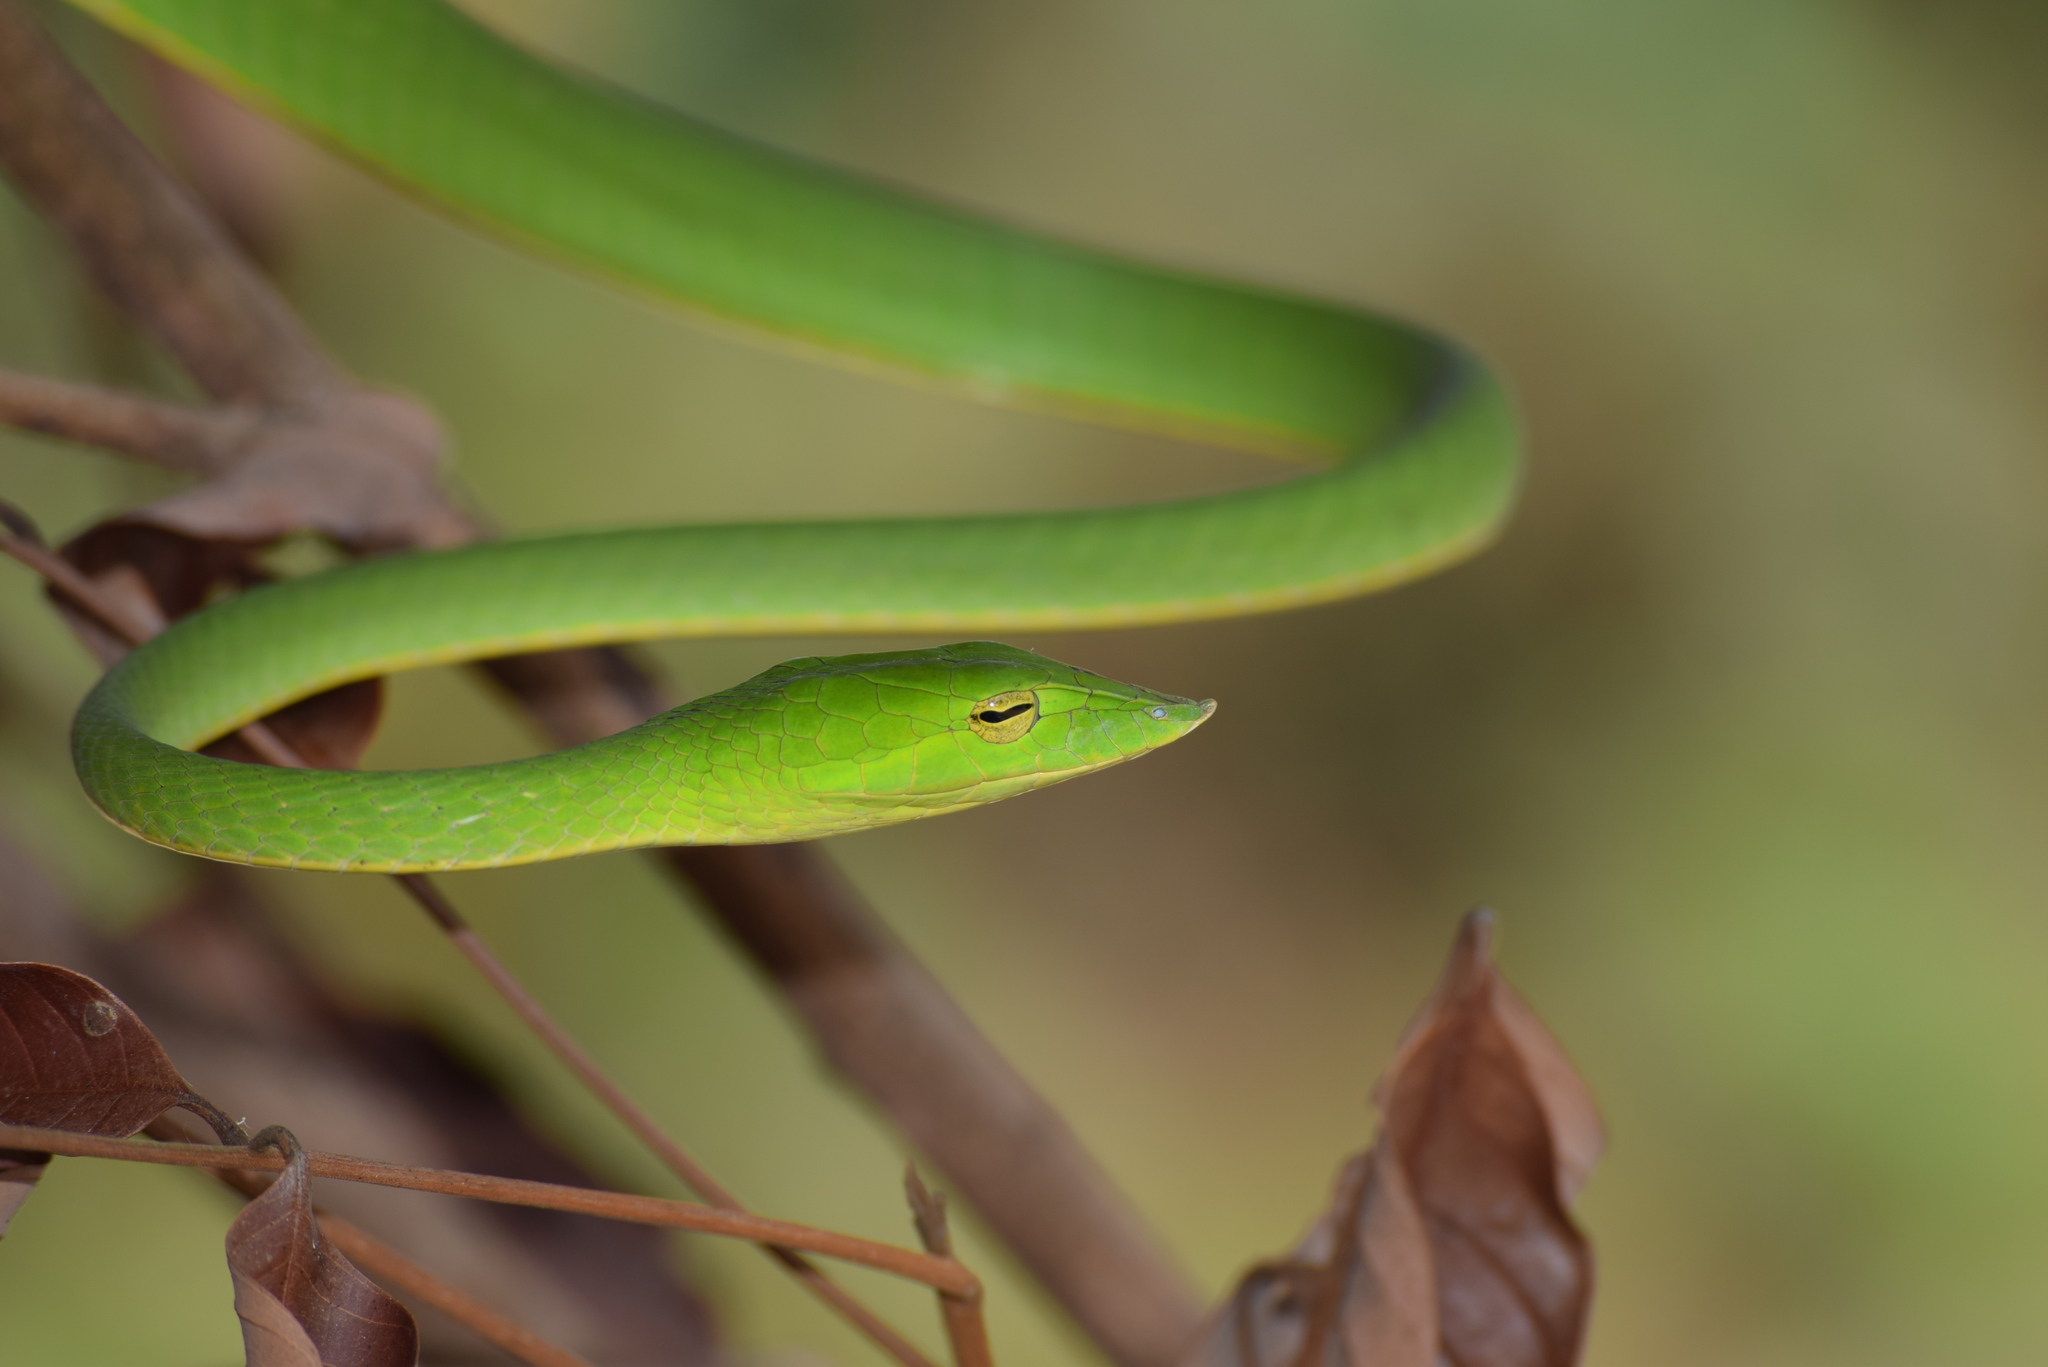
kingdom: Animalia
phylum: Chordata
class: Squamata
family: Colubridae
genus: Ahaetulla
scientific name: Ahaetulla farnsworthi
